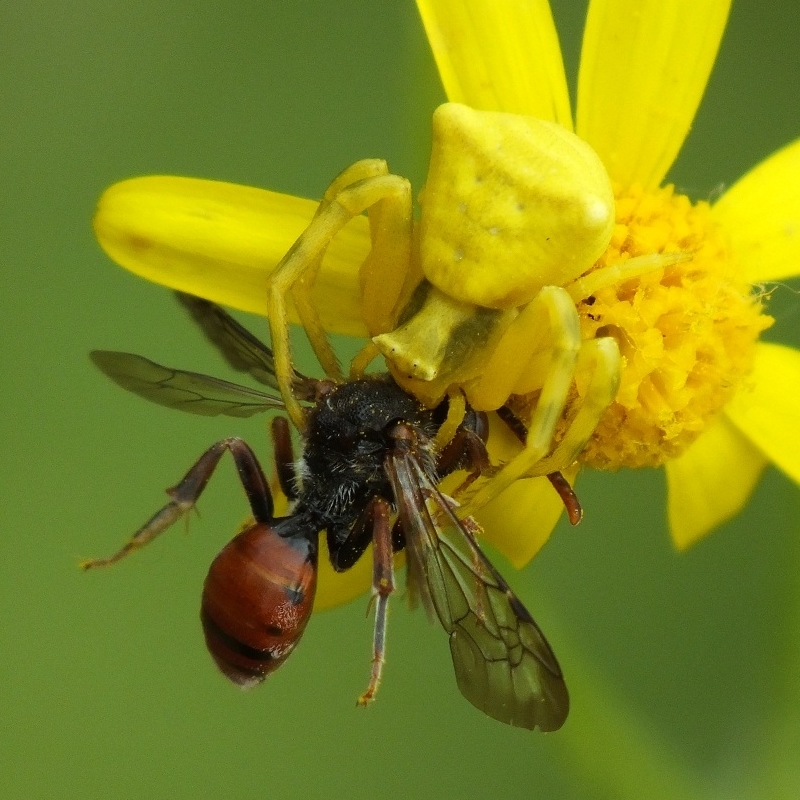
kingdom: Animalia
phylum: Arthropoda
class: Arachnida
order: Araneae
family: Thomisidae
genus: Thomisus
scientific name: Thomisus onustus
